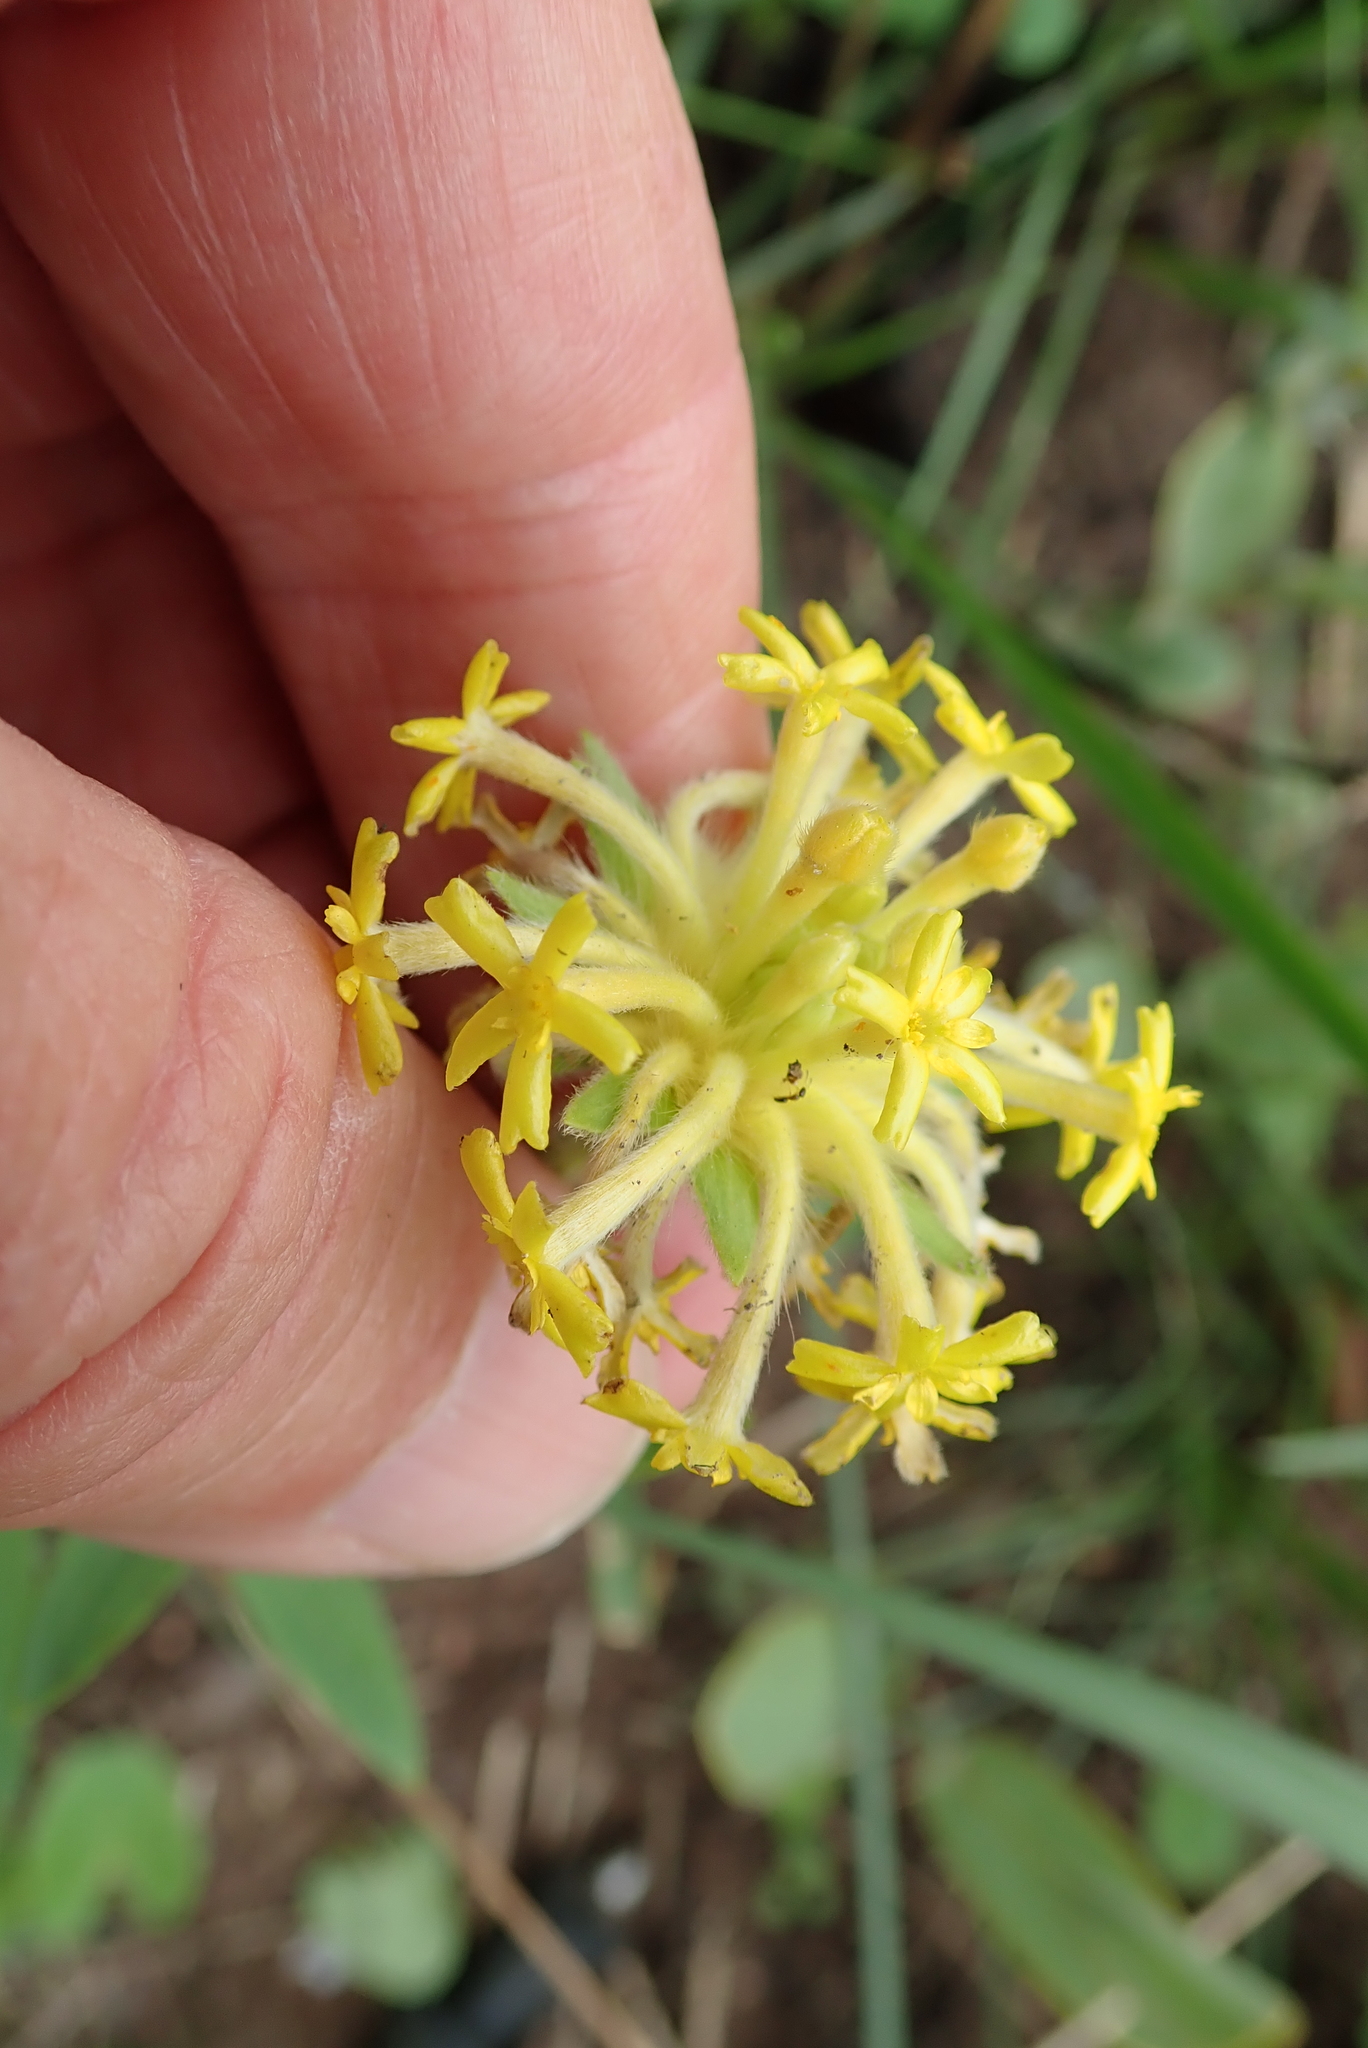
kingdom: Plantae
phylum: Tracheophyta
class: Magnoliopsida
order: Malvales
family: Thymelaeaceae
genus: Gnidia
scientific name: Gnidia kraussiana
